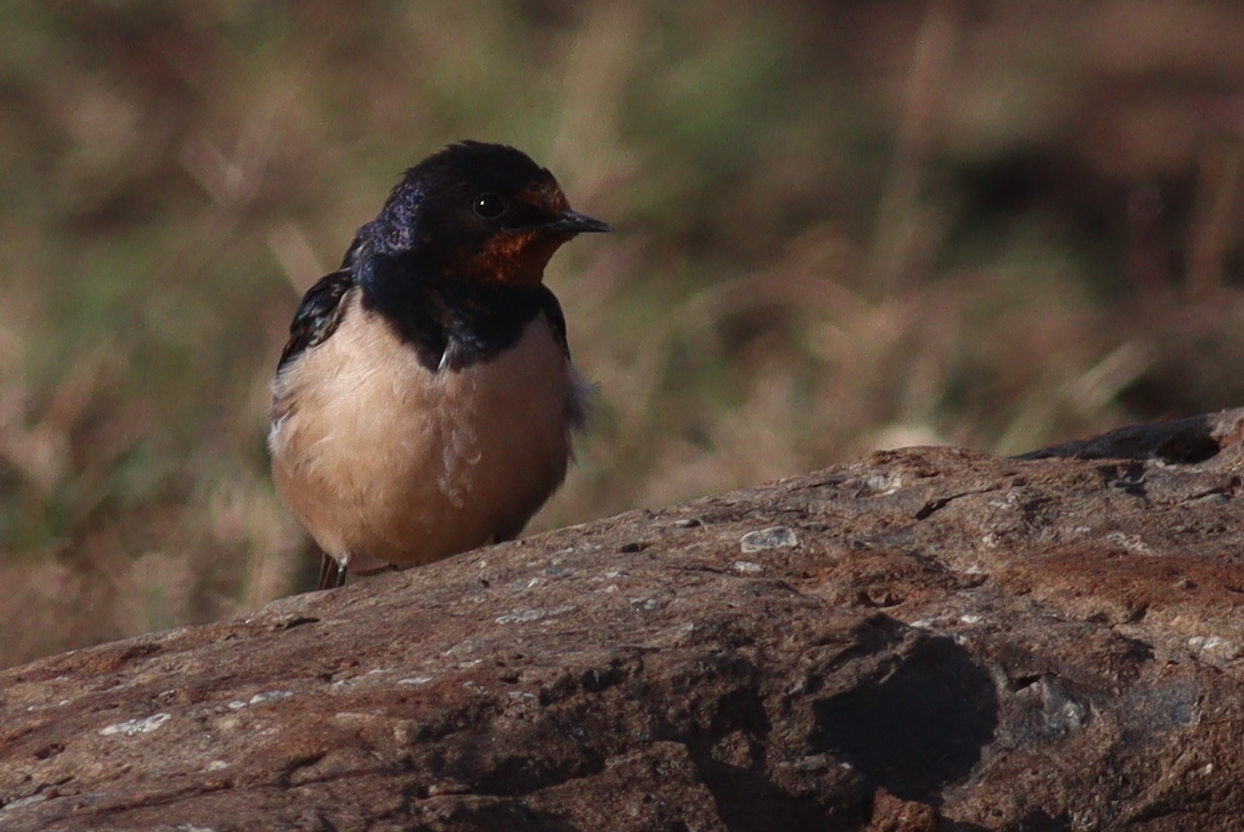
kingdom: Animalia
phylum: Chordata
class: Aves
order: Passeriformes
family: Hirundinidae
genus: Hirundo
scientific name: Hirundo rustica
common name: Barn swallow
